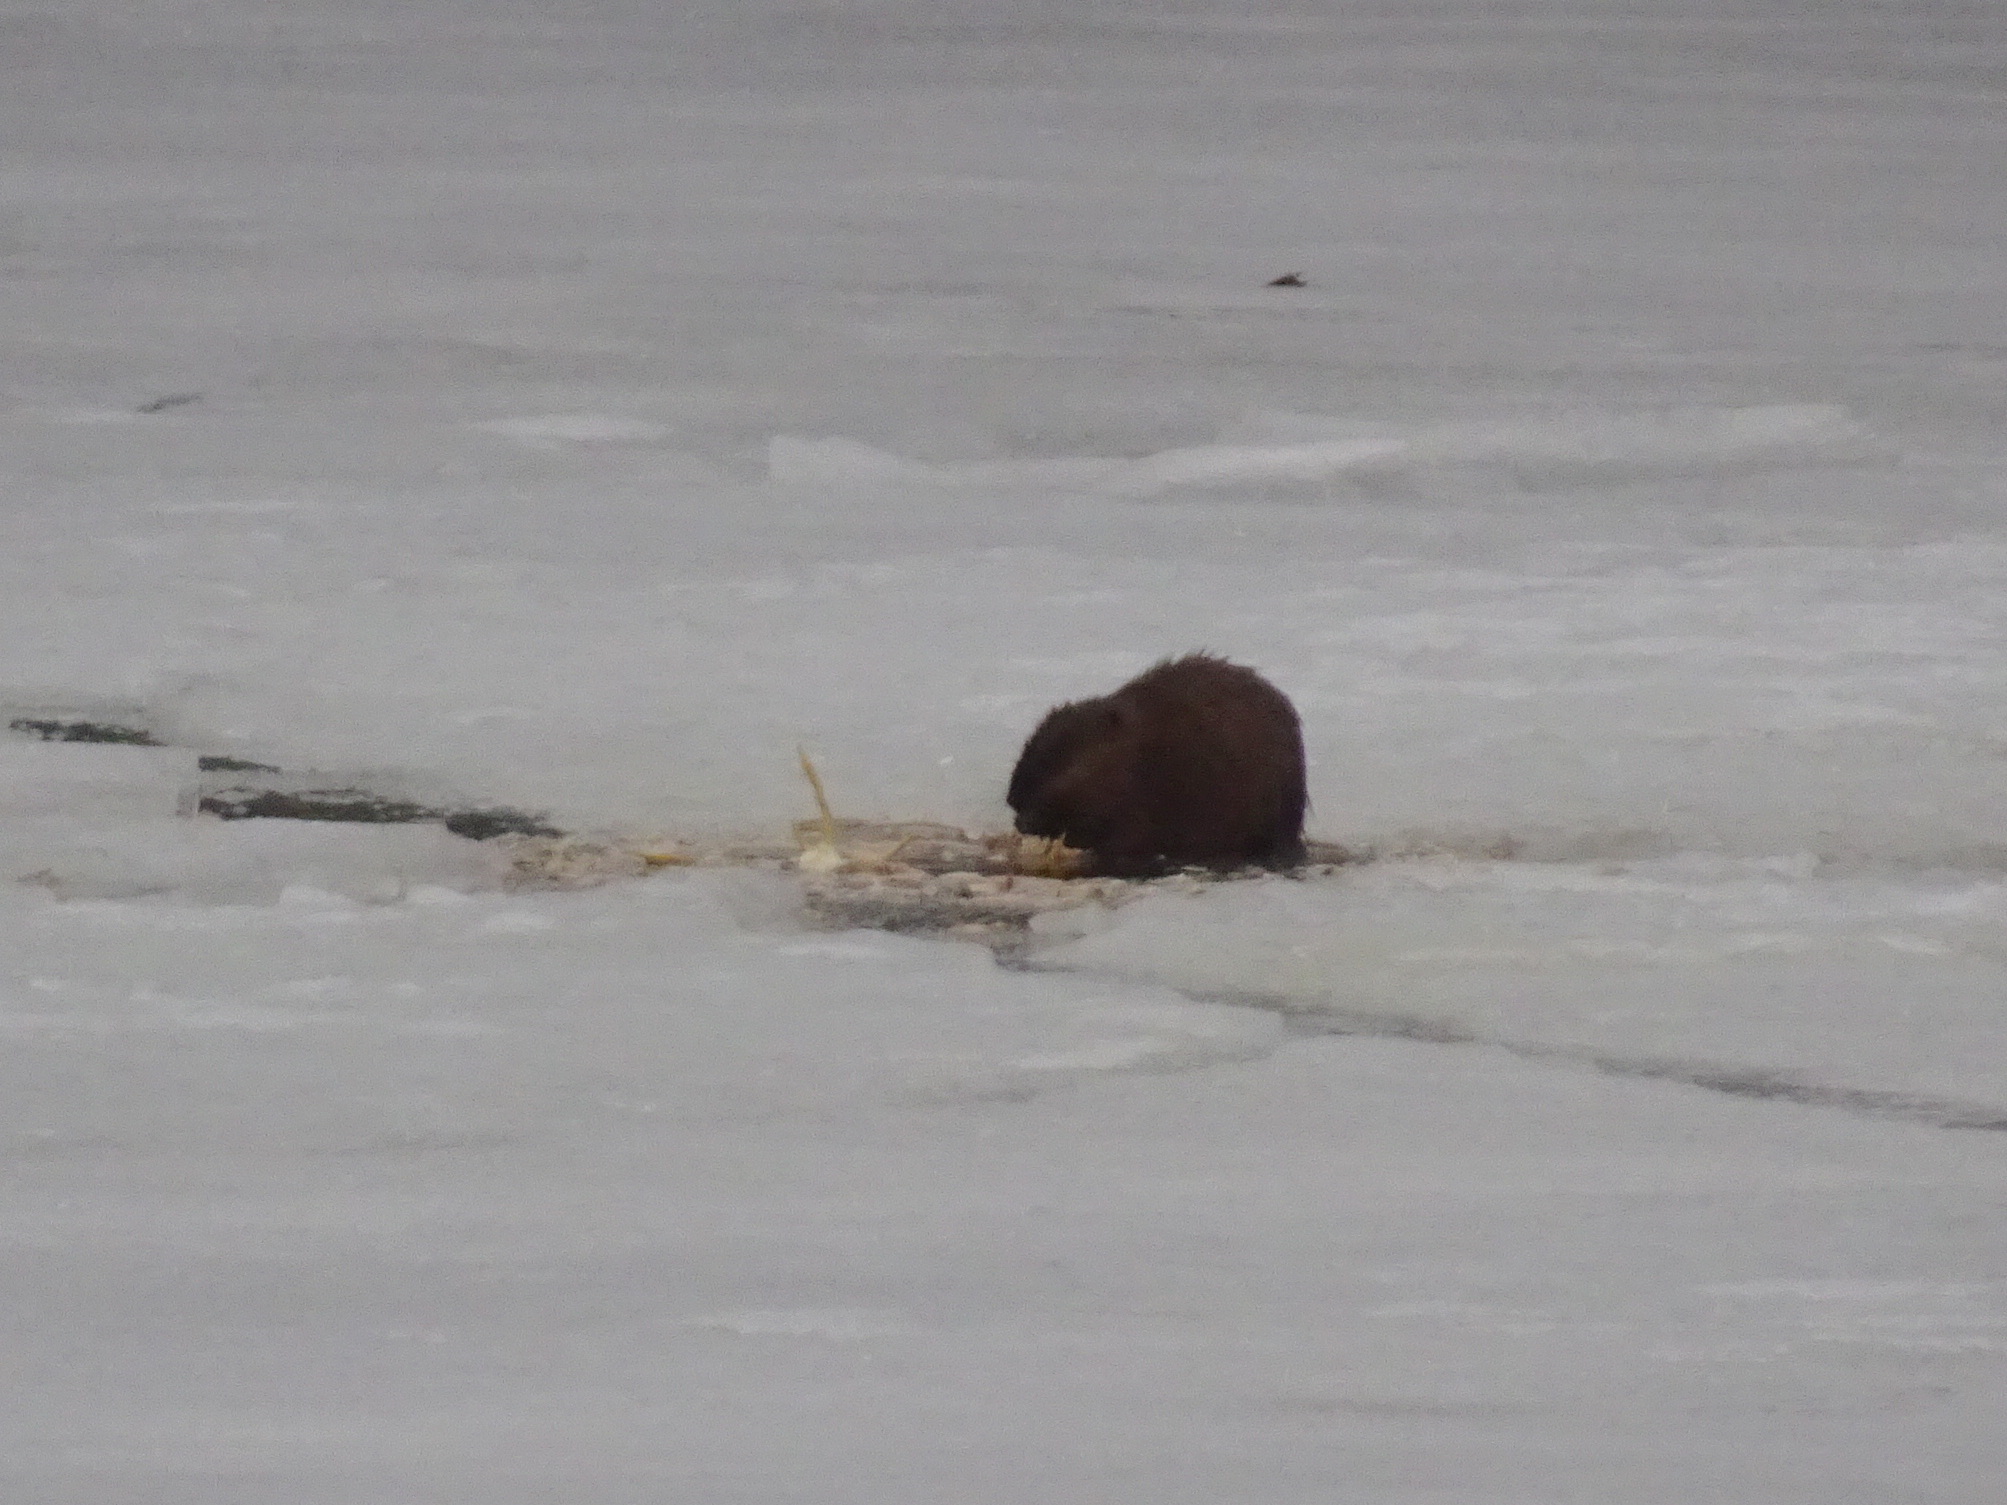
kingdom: Animalia
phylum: Chordata
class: Mammalia
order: Rodentia
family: Cricetidae
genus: Ondatra
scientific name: Ondatra zibethicus
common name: Muskrat
